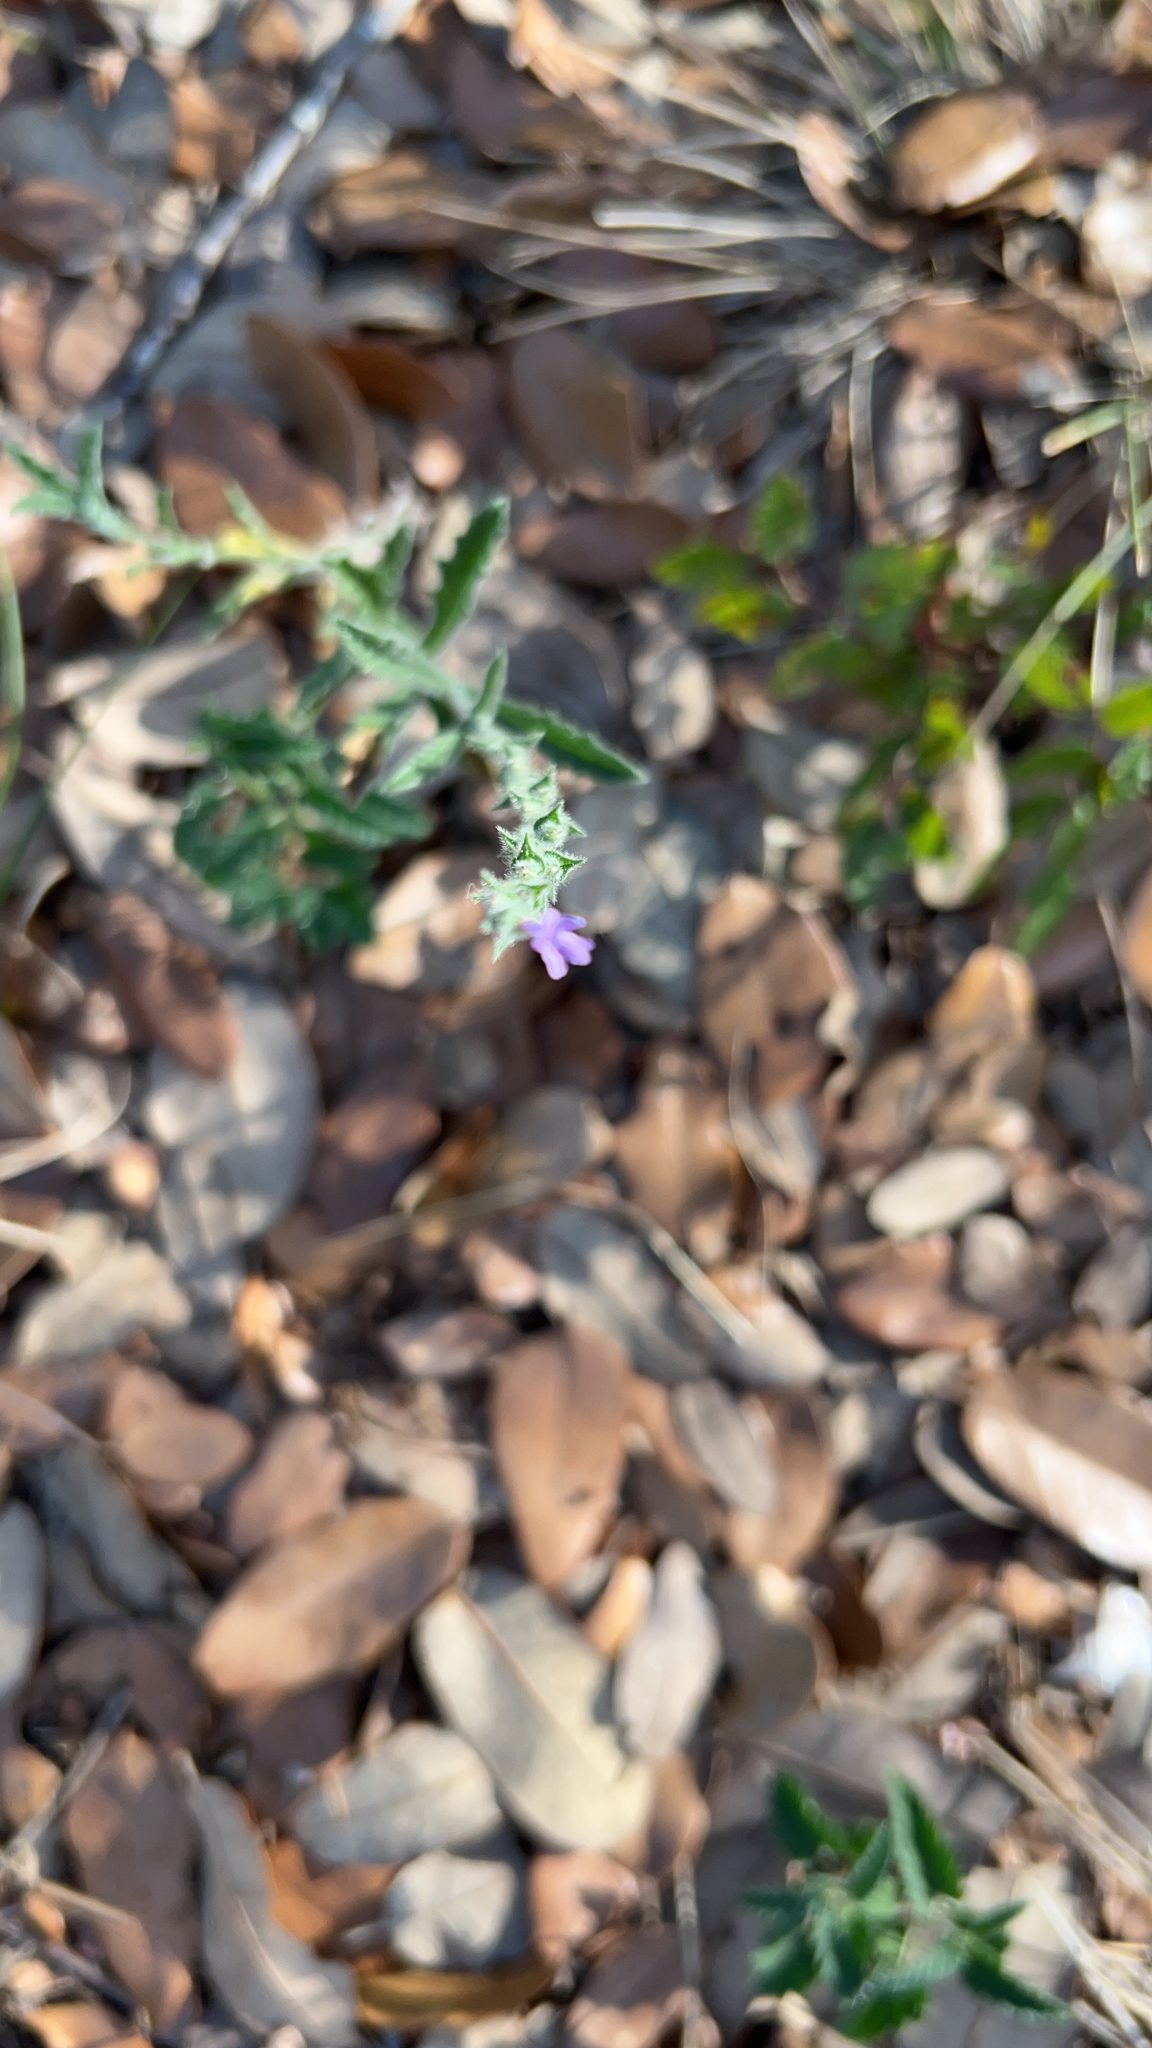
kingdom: Plantae
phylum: Tracheophyta
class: Magnoliopsida
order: Lamiales
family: Verbenaceae
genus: Verbena
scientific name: Verbena canescens
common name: Gray vervain
